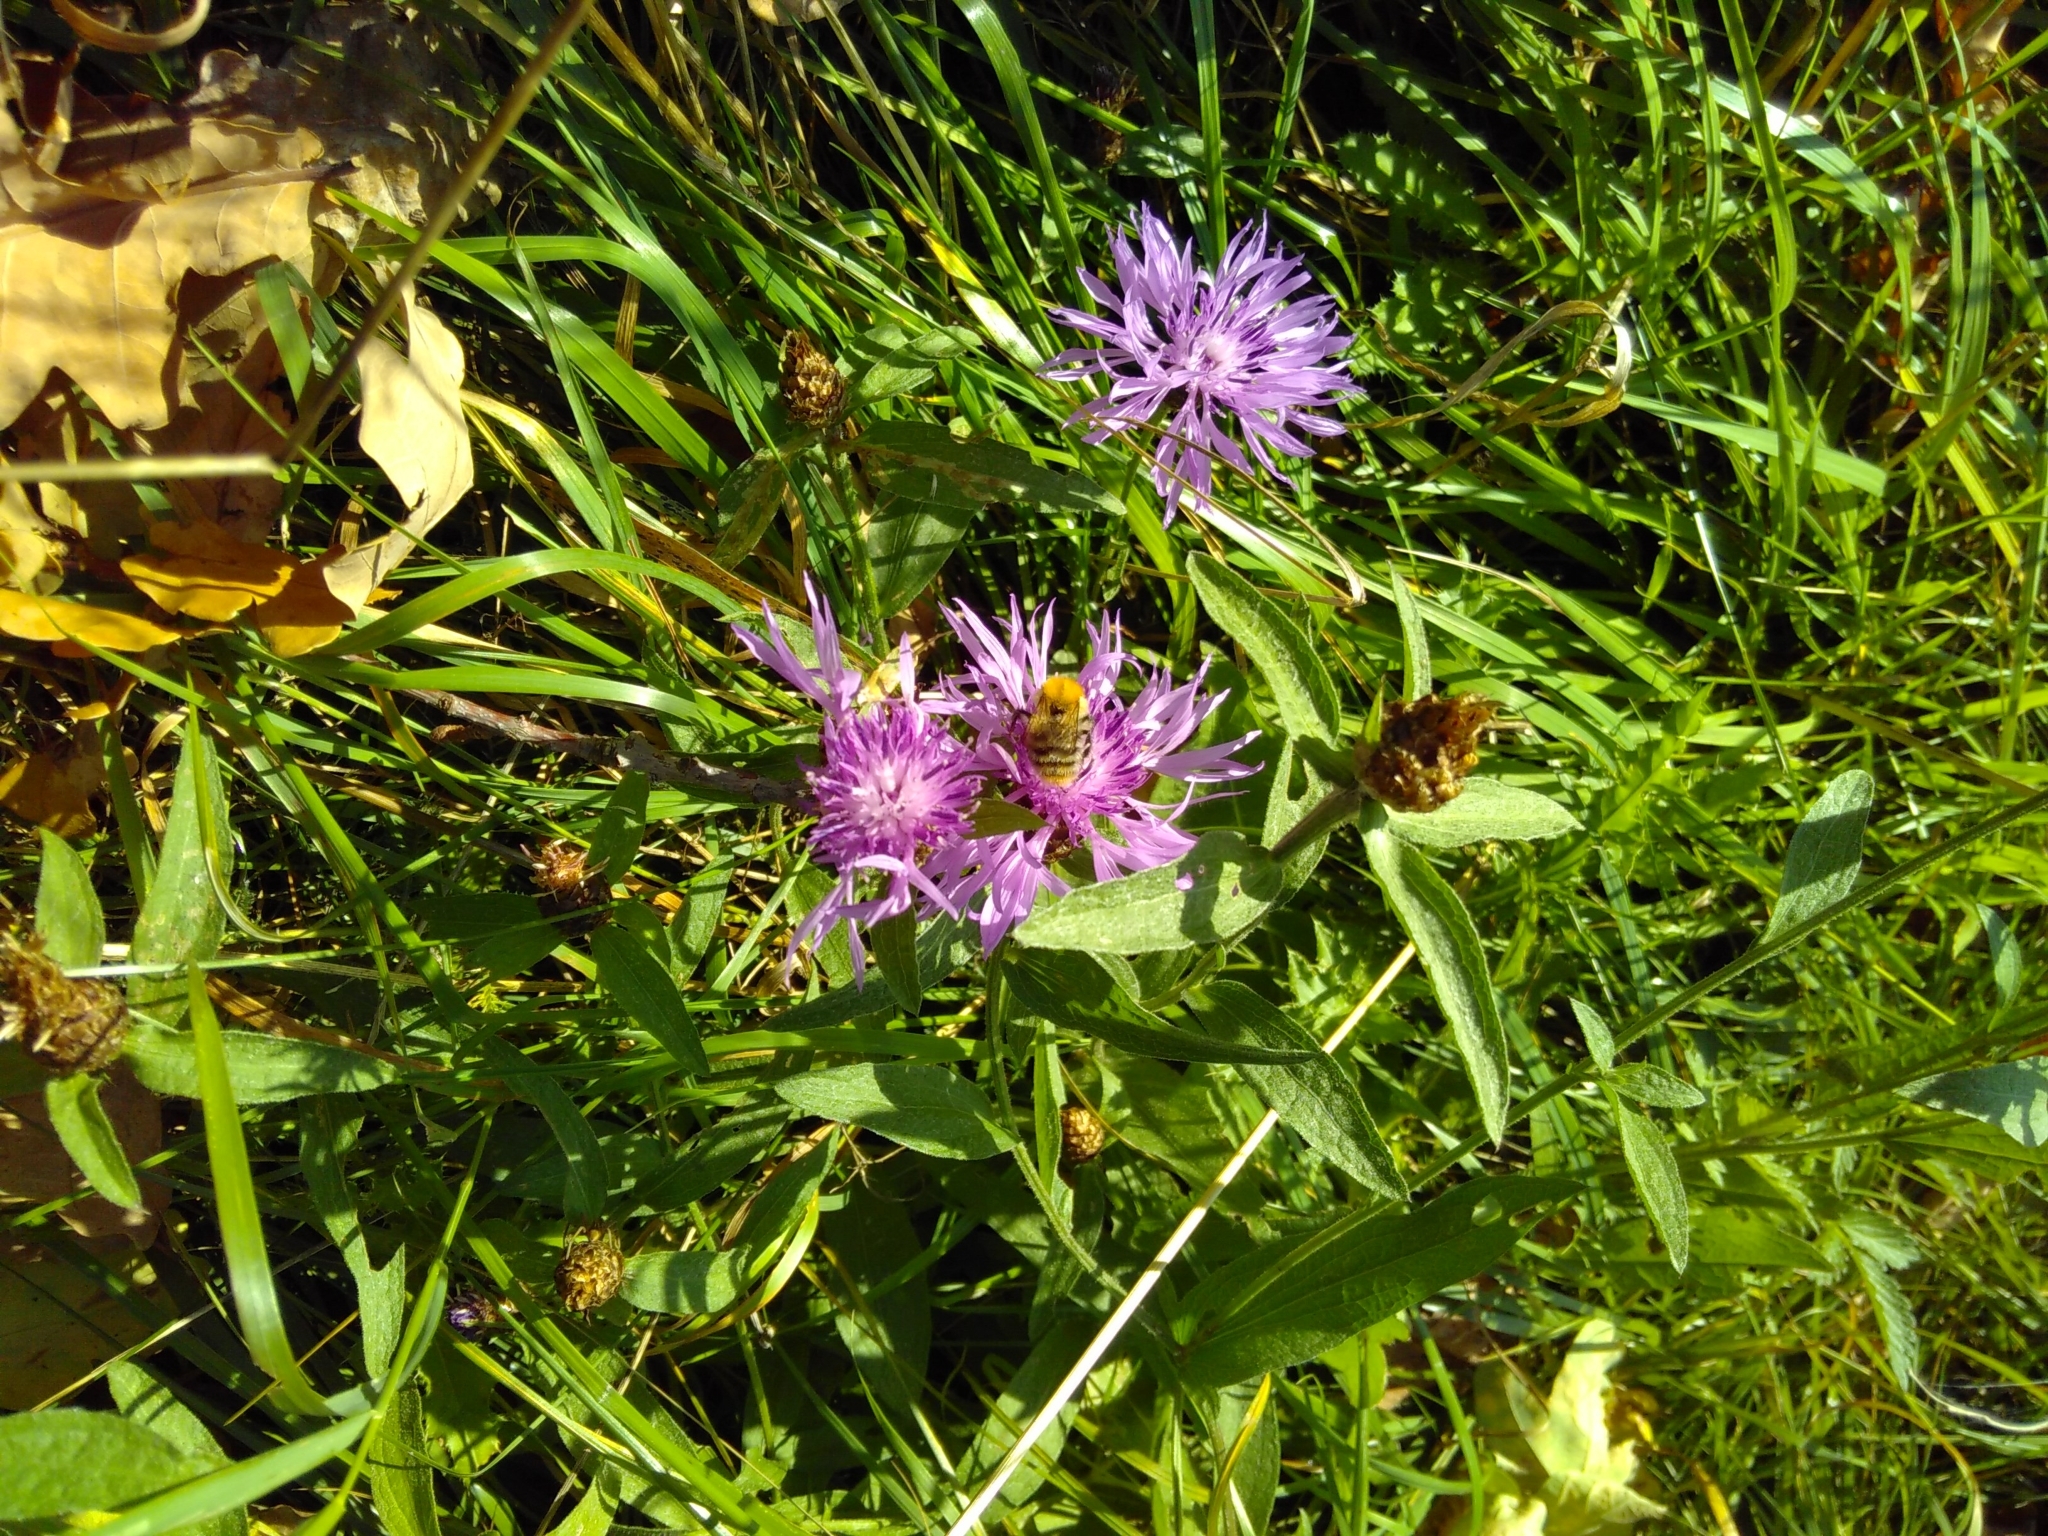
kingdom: Animalia
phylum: Arthropoda
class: Insecta
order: Hymenoptera
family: Apidae
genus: Bombus
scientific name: Bombus pascuorum
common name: Common carder bee
